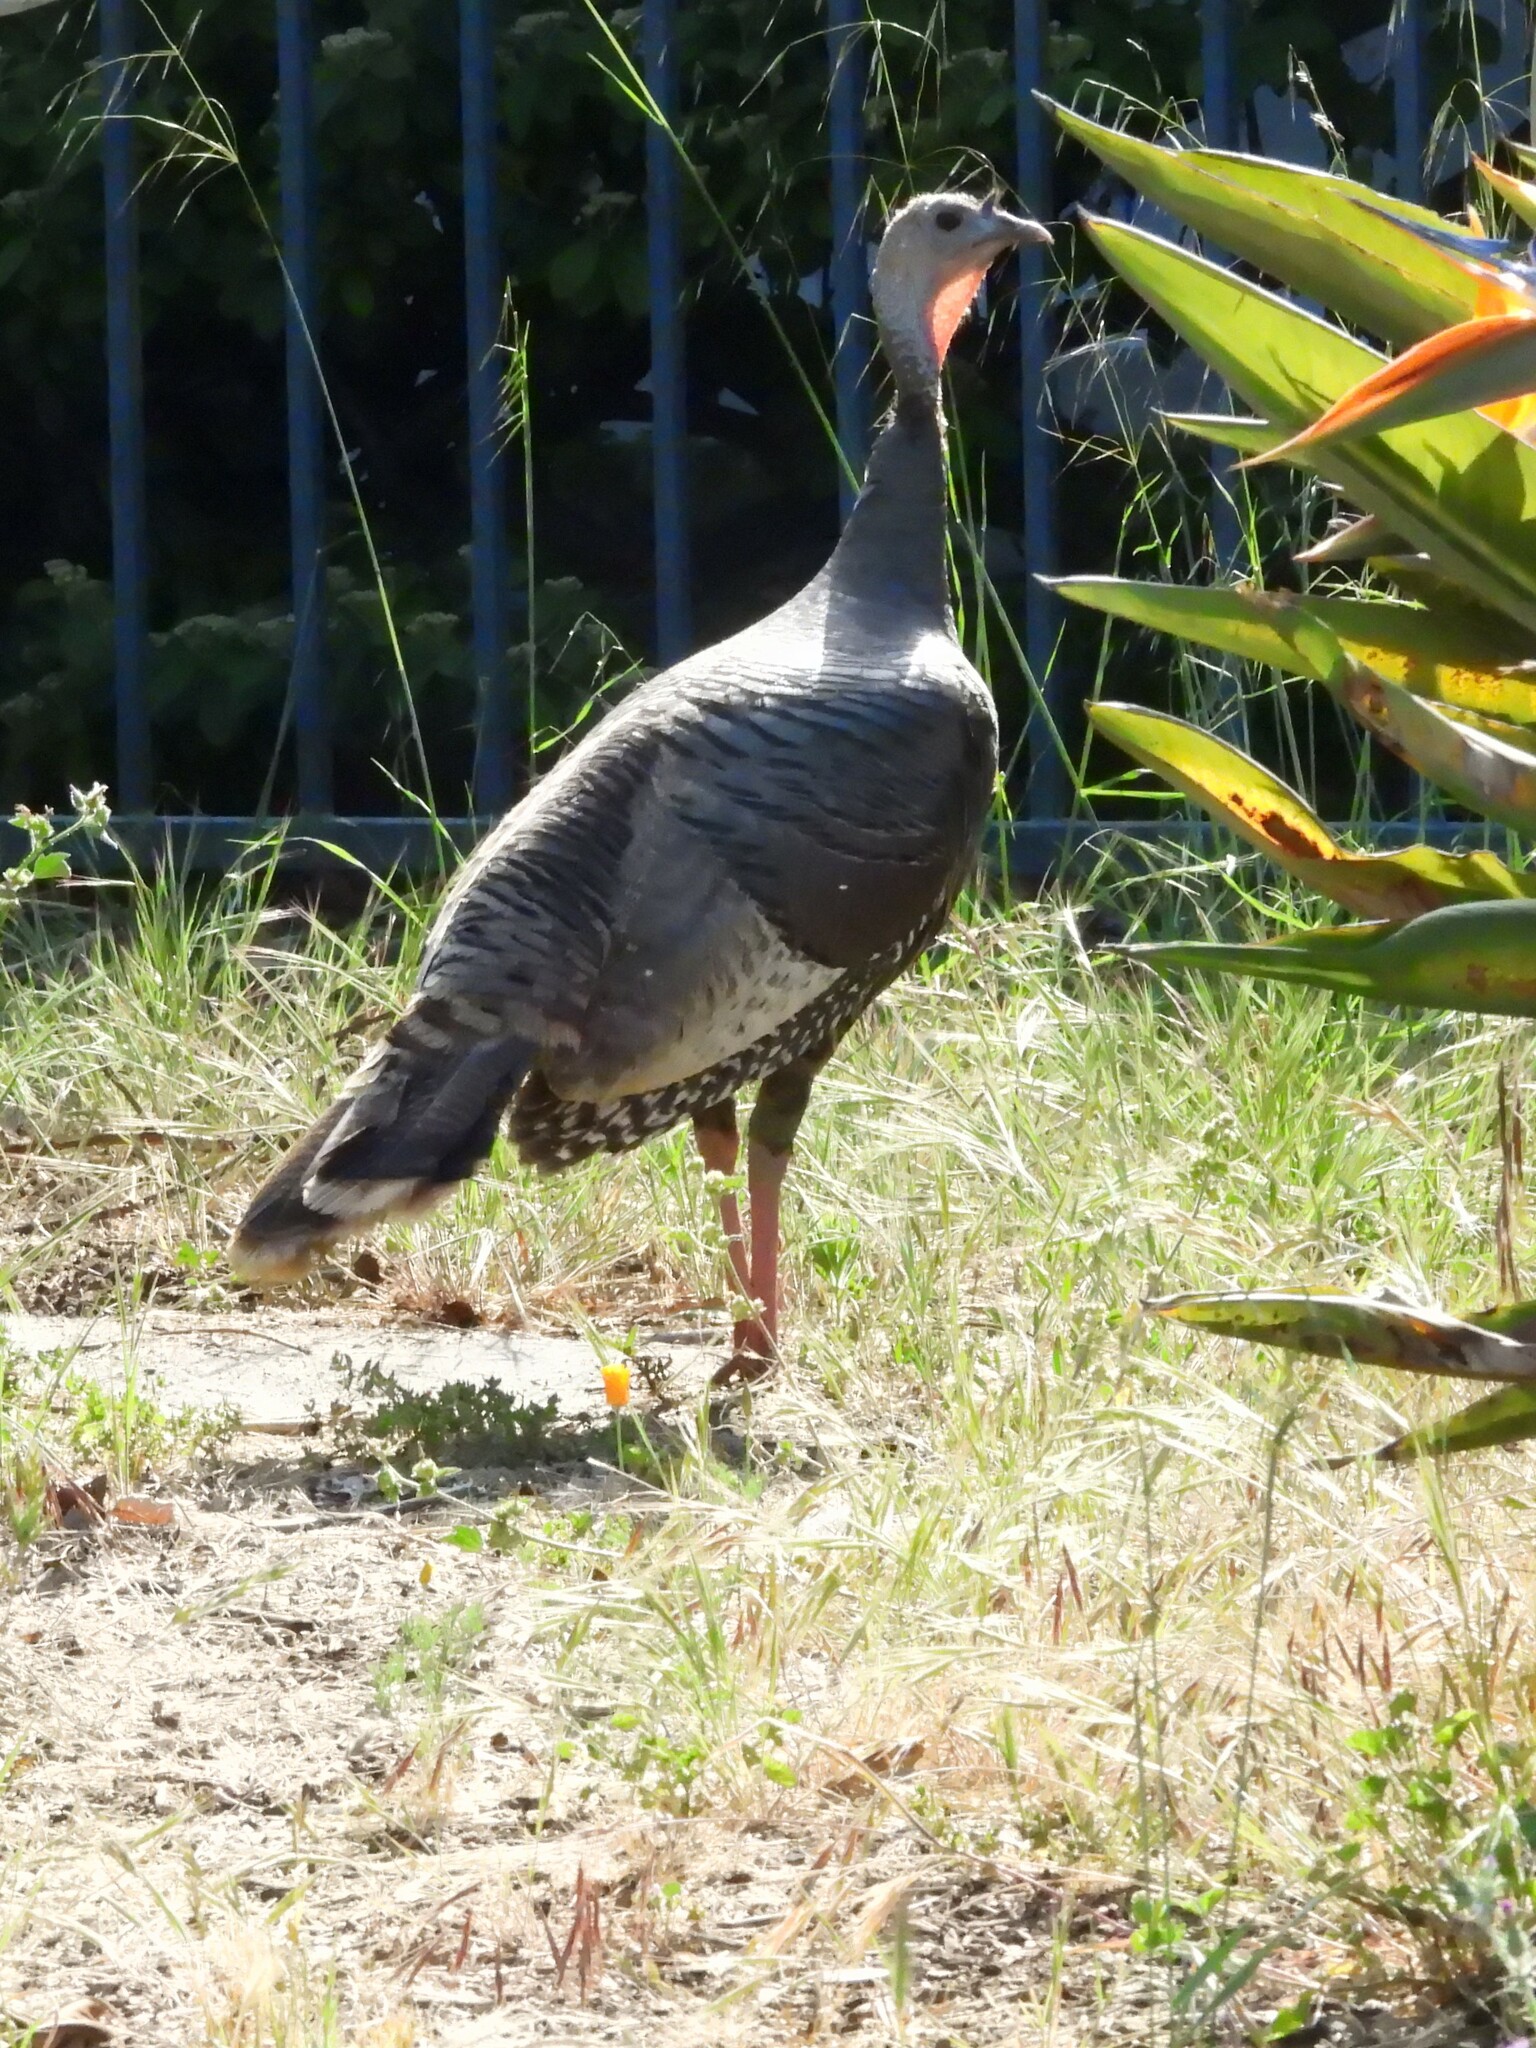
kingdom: Animalia
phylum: Chordata
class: Aves
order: Galliformes
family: Phasianidae
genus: Meleagris
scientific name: Meleagris gallopavo
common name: Wild turkey
